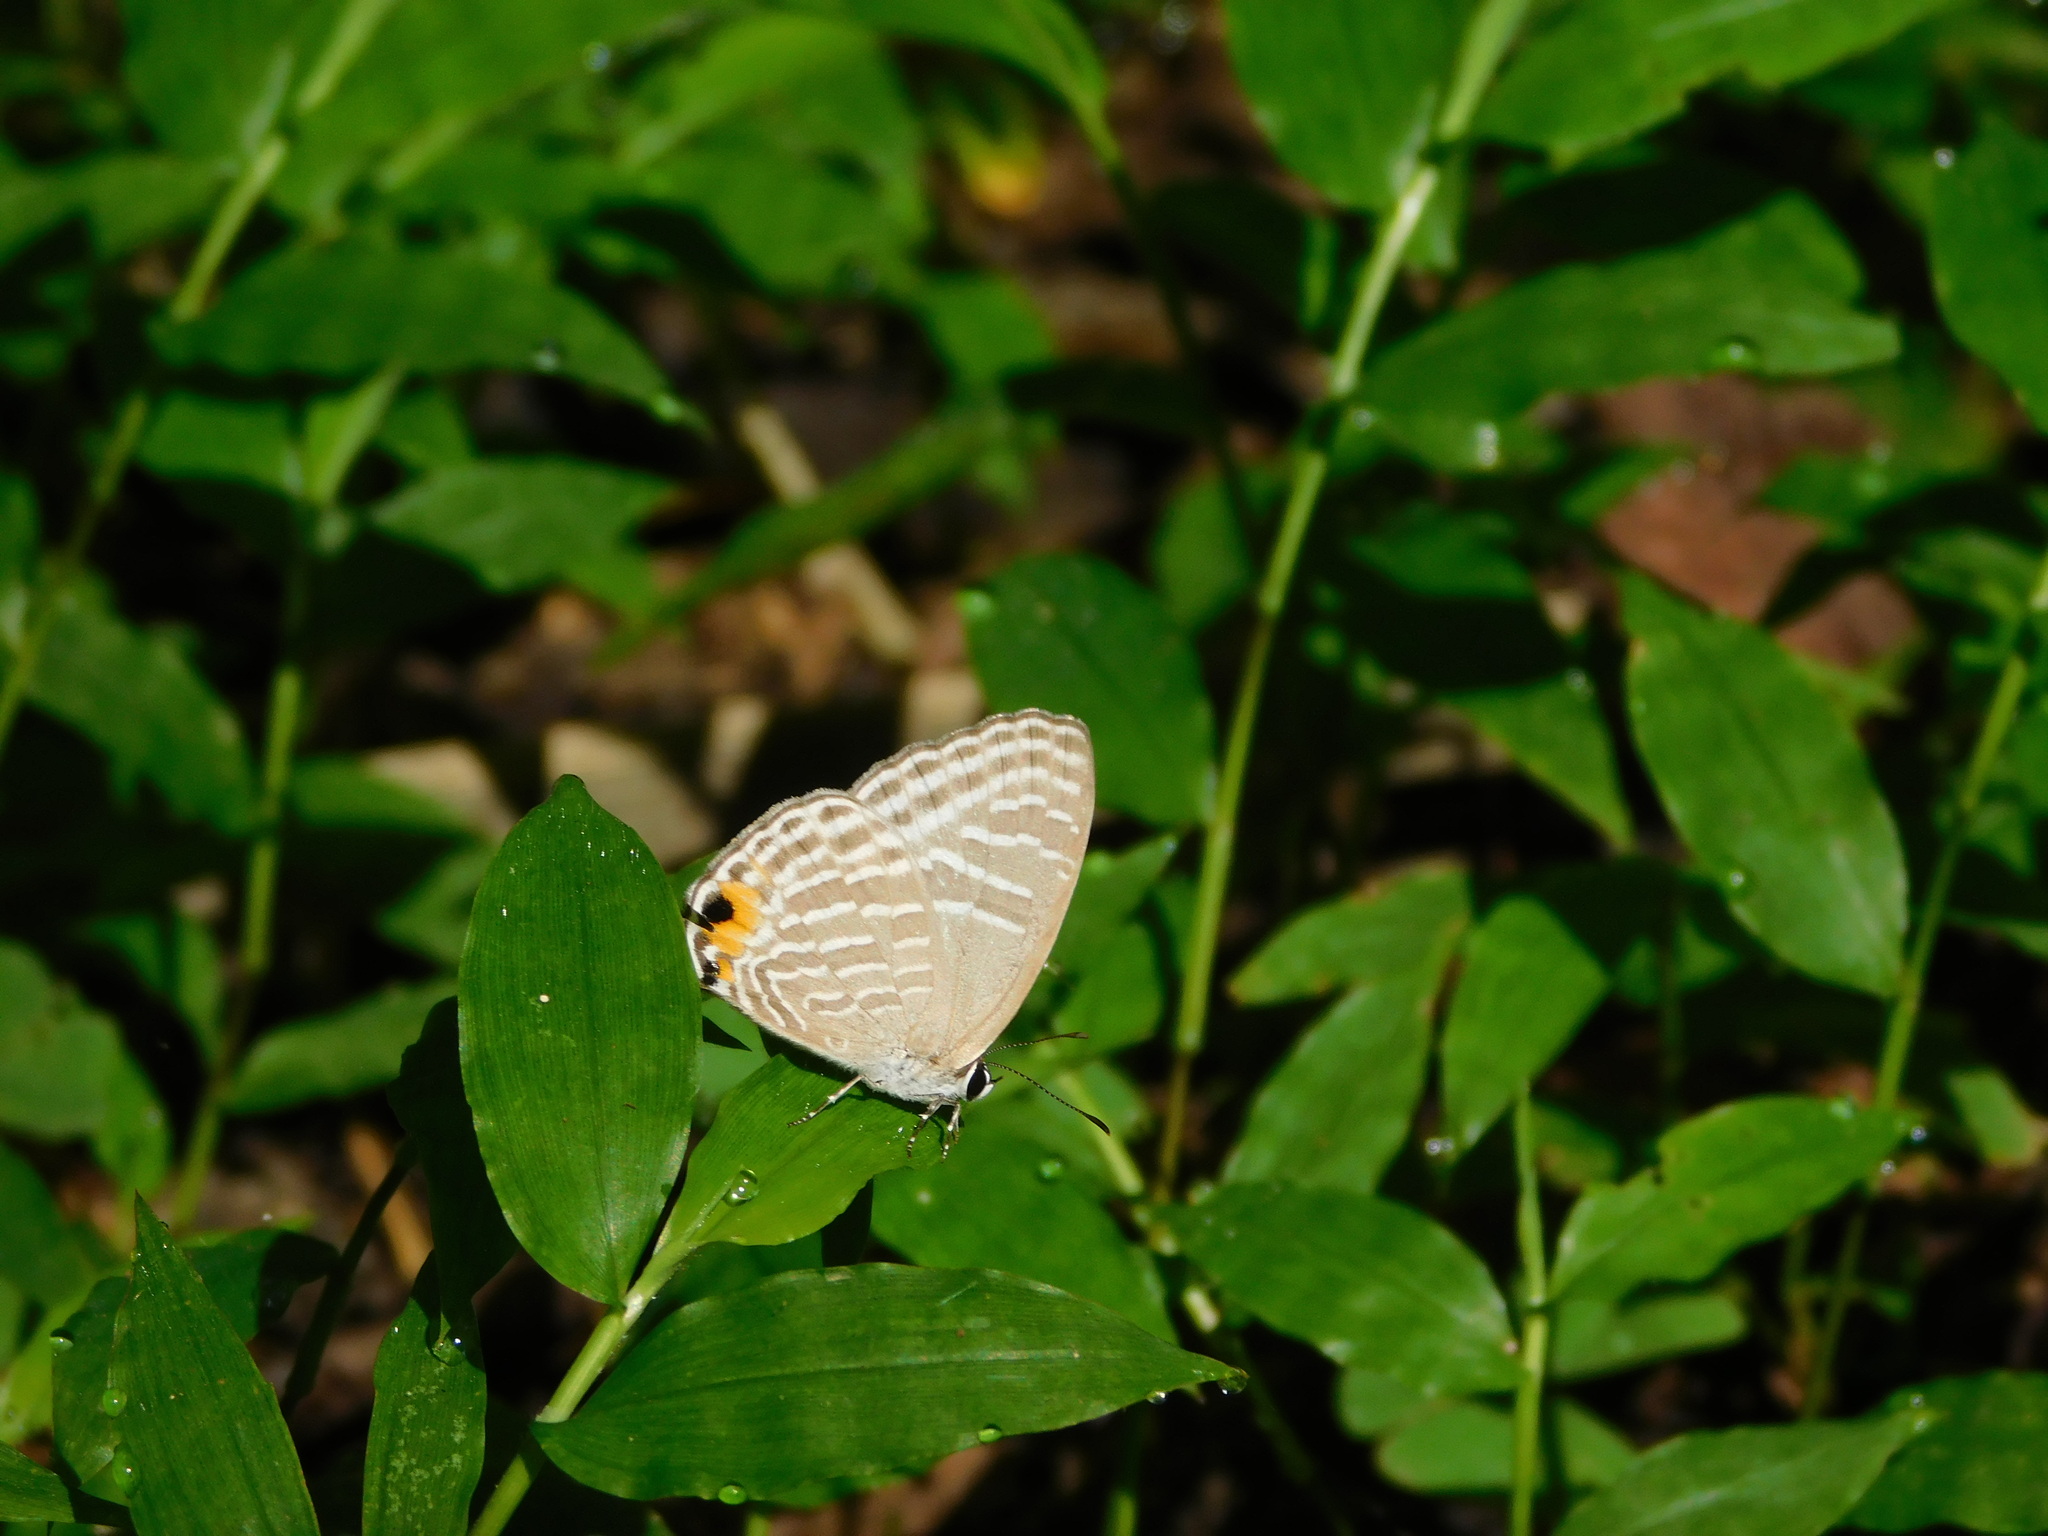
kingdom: Animalia
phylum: Arthropoda
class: Insecta
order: Lepidoptera
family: Lycaenidae
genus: Jamides
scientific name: Jamides alecto
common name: Metallic cerulean
